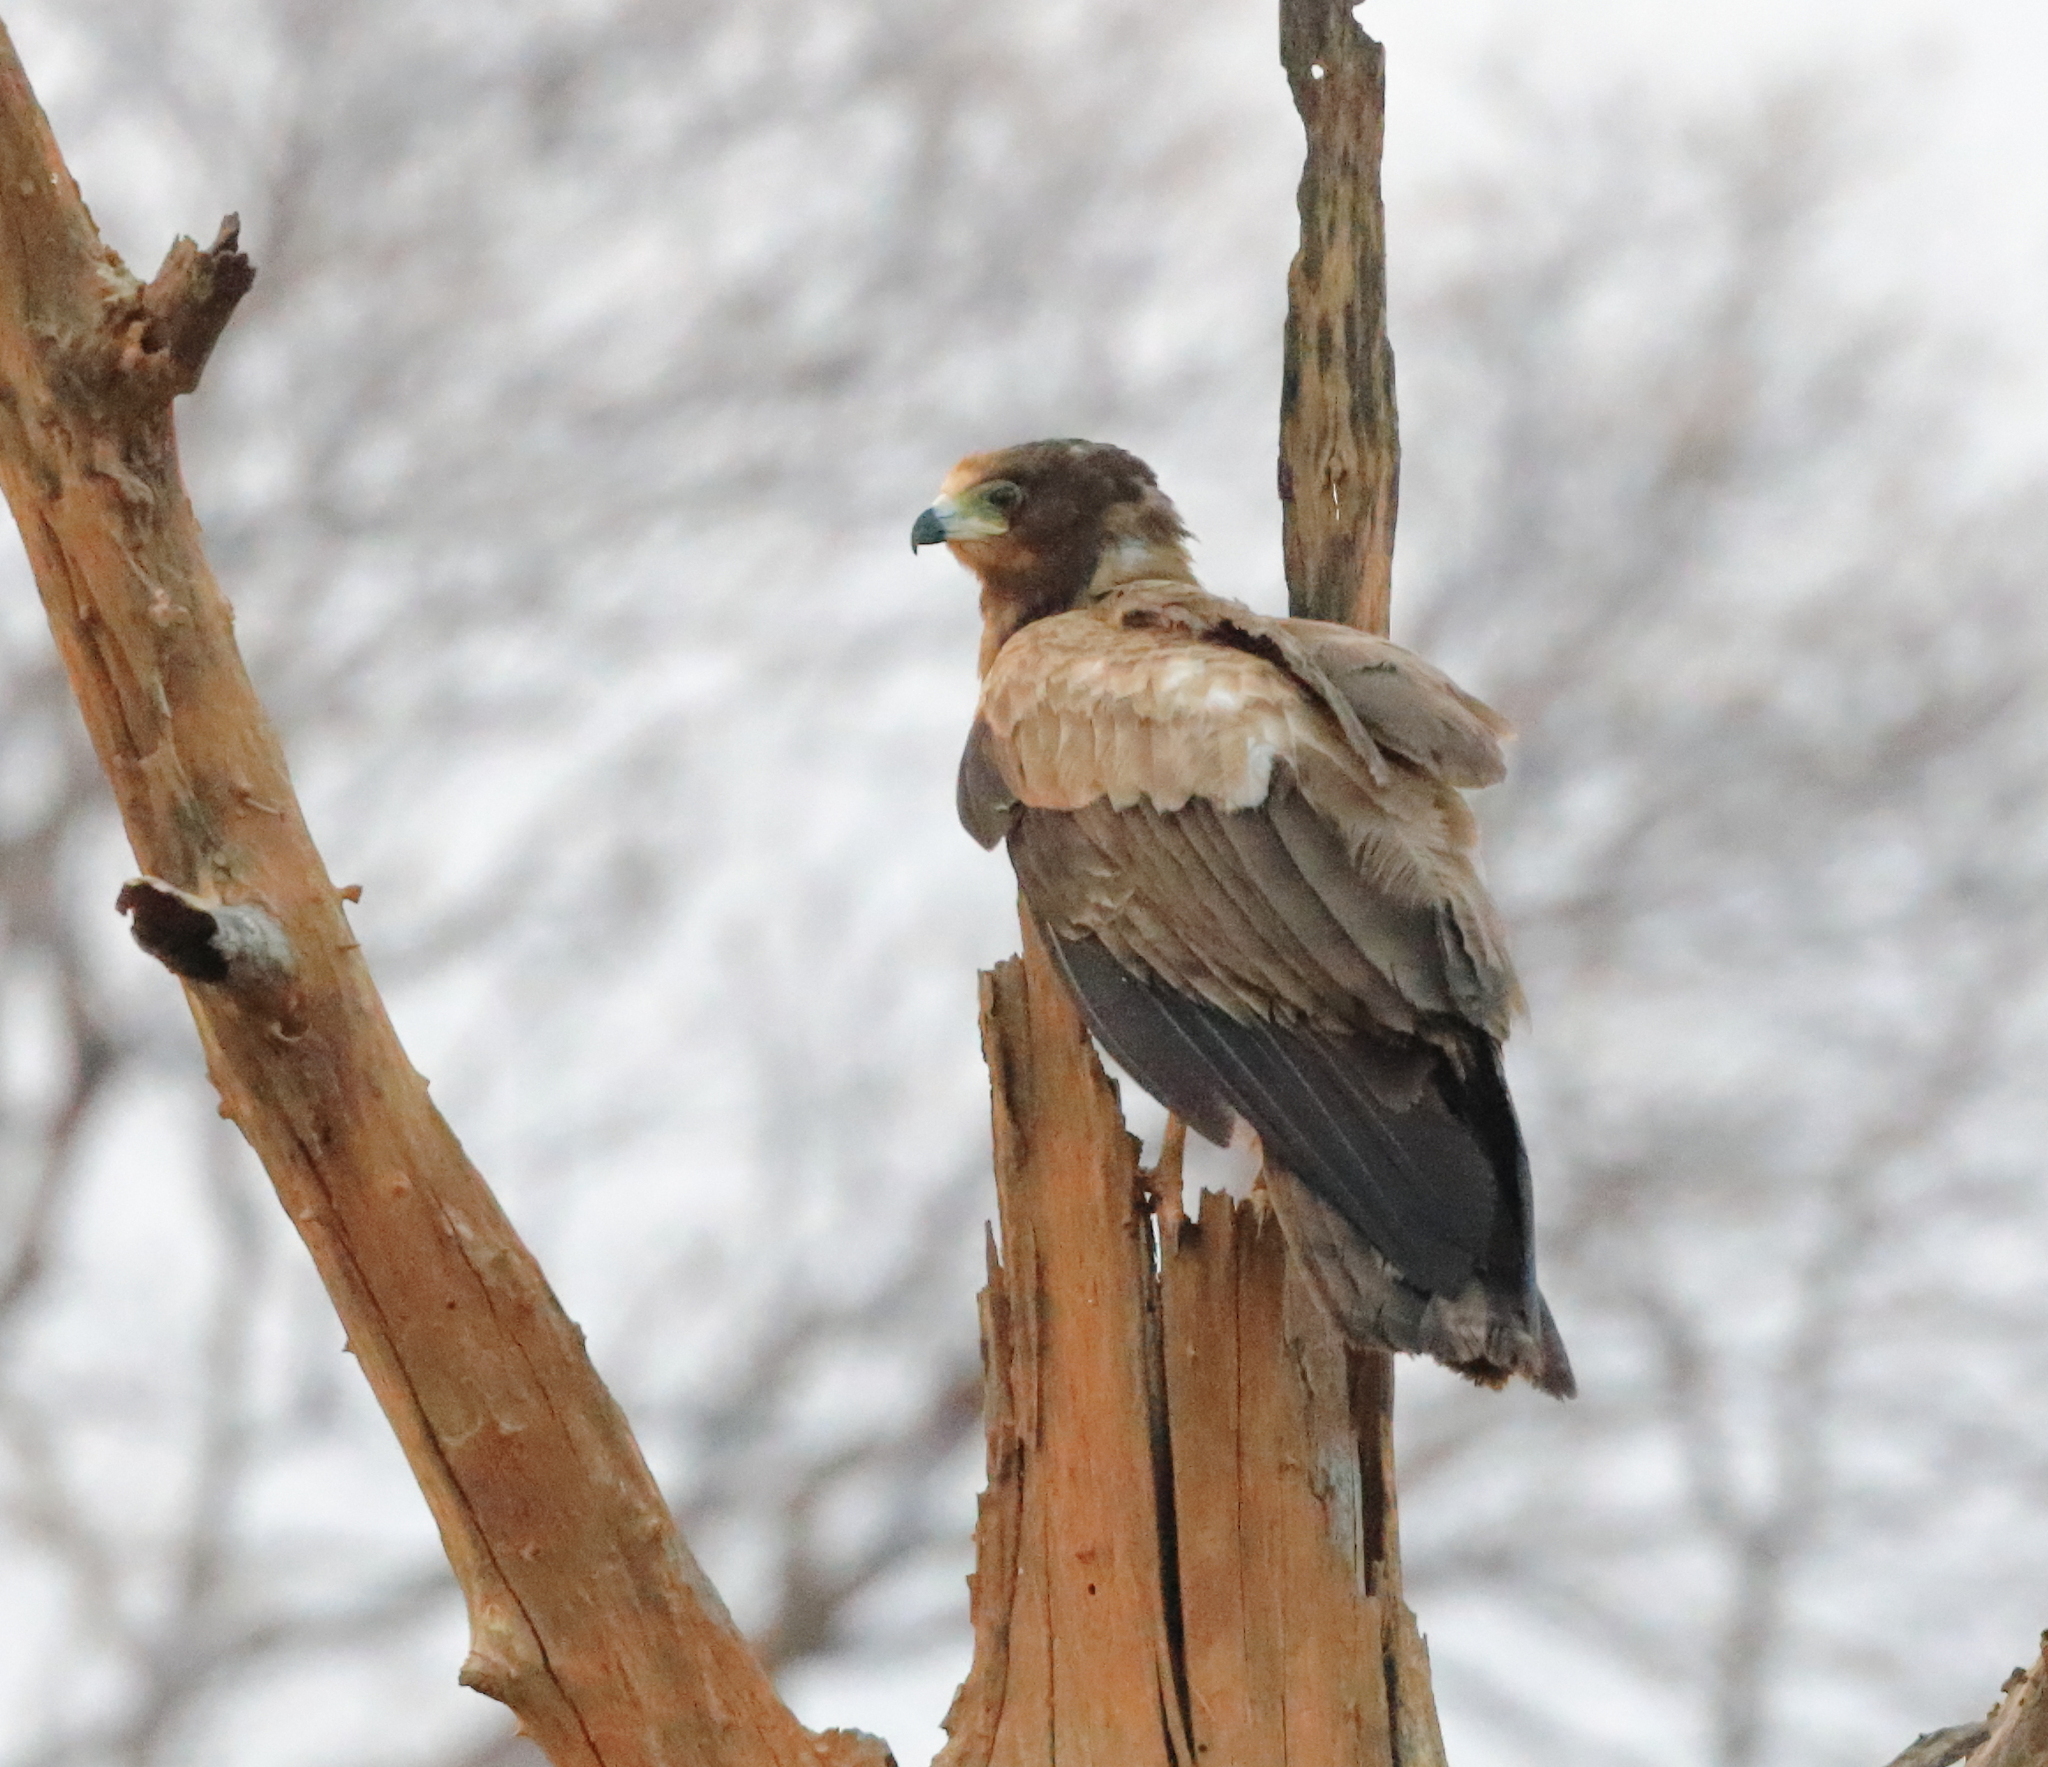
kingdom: Animalia
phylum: Chordata
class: Aves
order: Accipitriformes
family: Accipitridae
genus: Aquila
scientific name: Aquila rapax
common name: Tawny eagle
